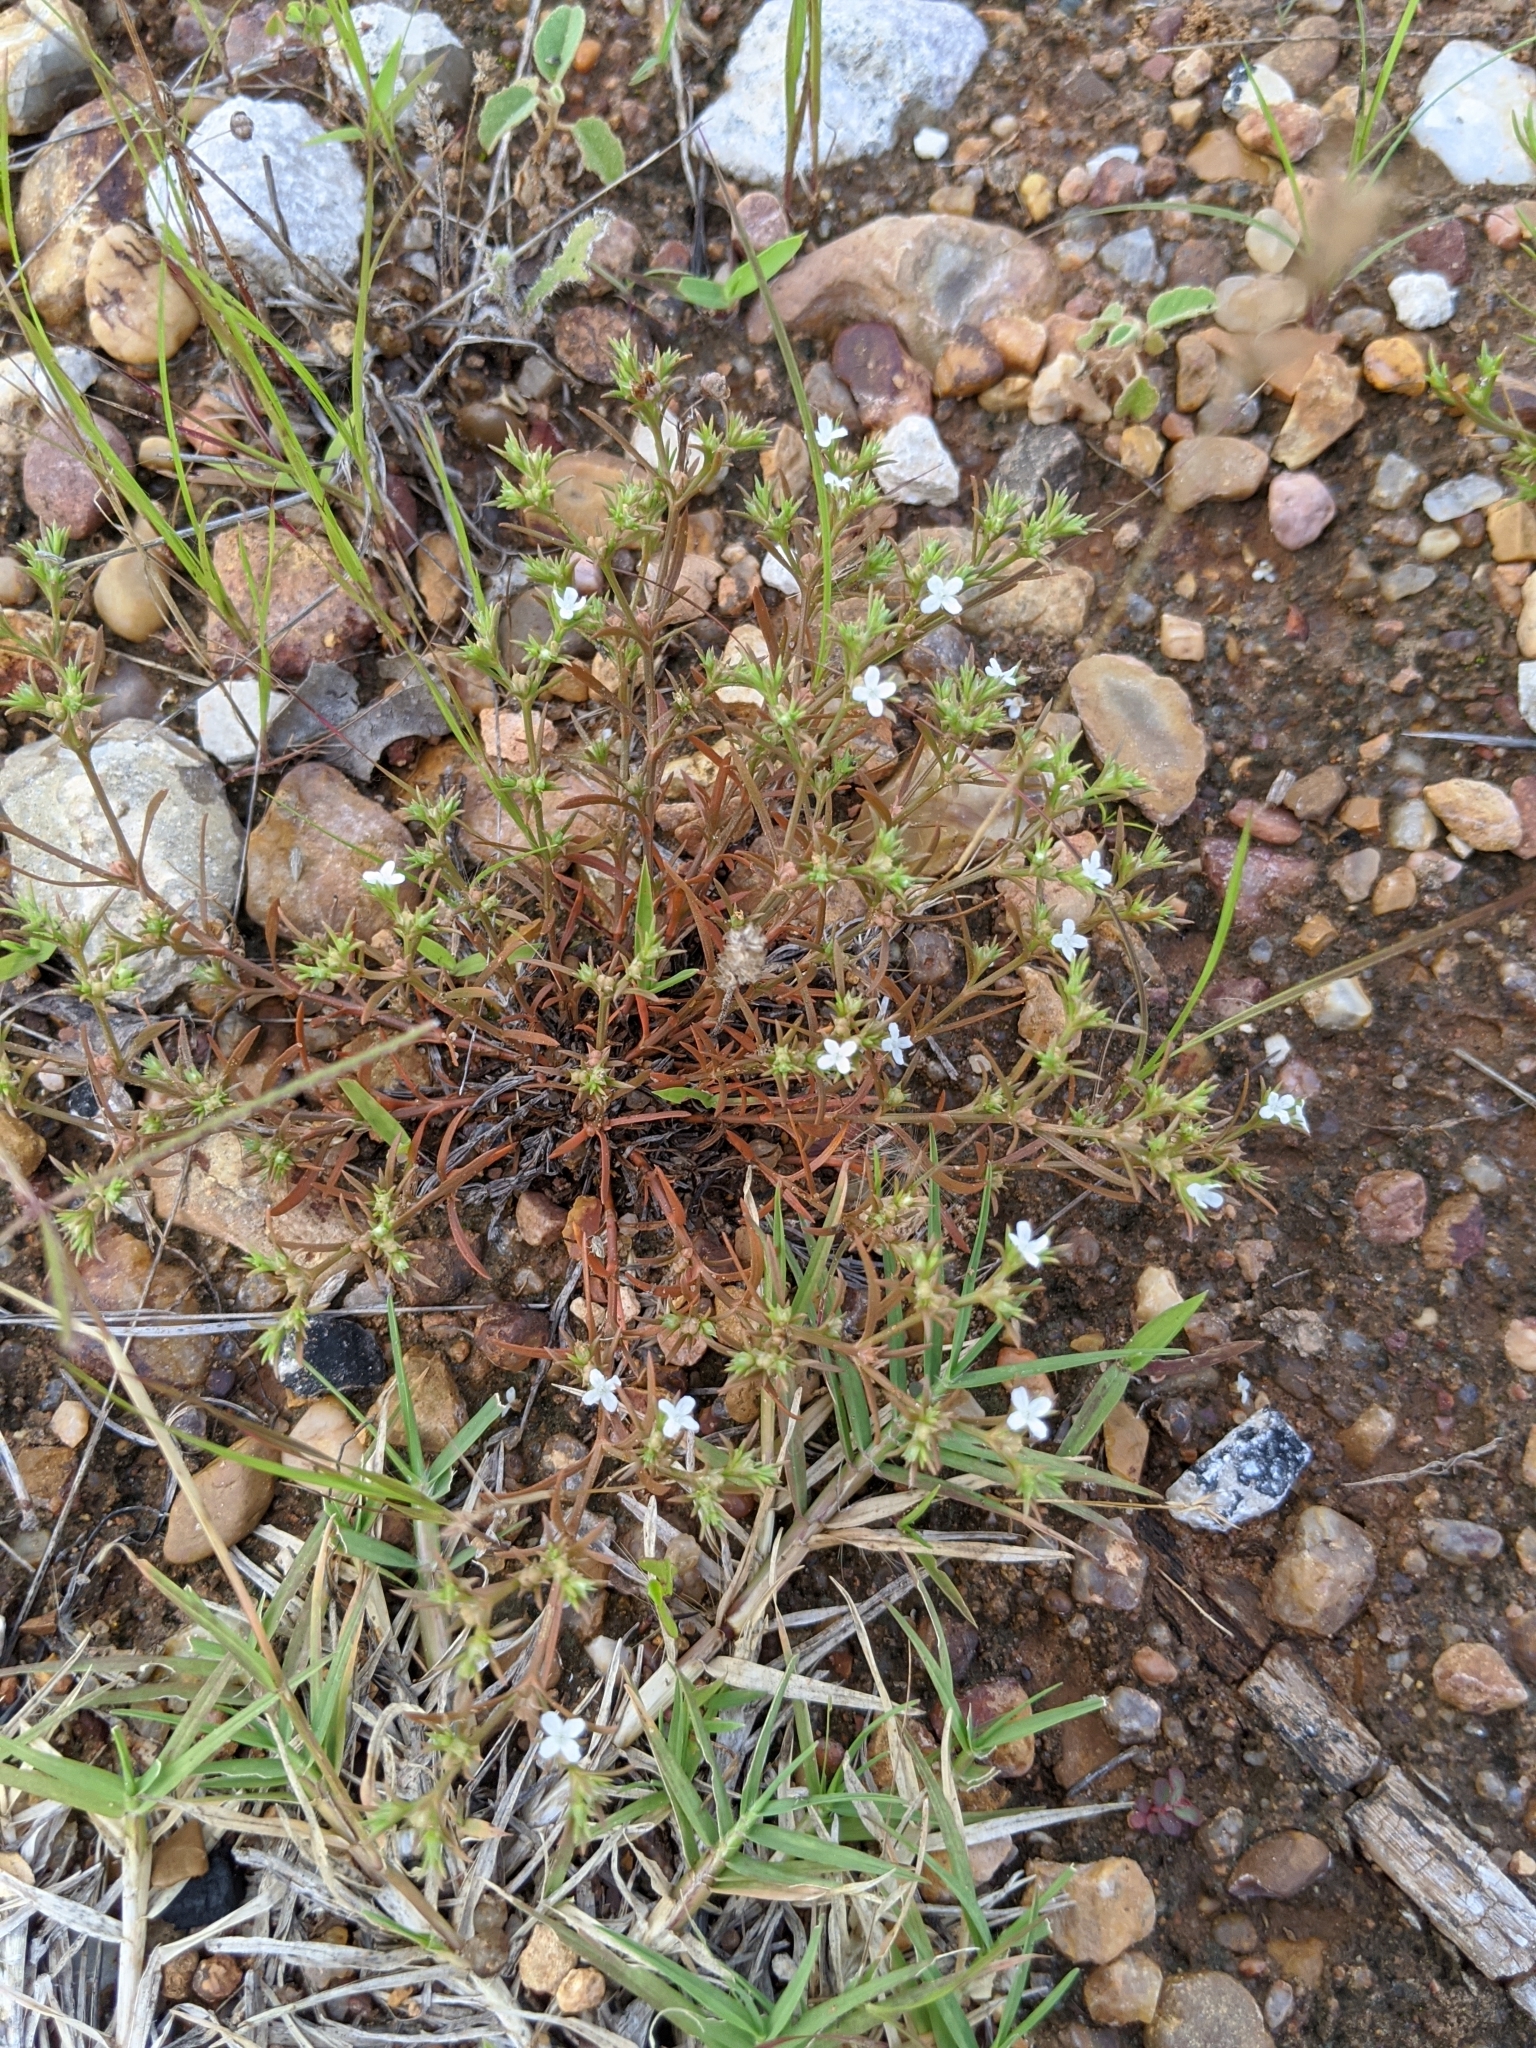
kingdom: Plantae
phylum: Tracheophyta
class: Magnoliopsida
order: Lamiales
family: Tetrachondraceae
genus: Polypremum
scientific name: Polypremum procumbens
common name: Juniper-leaf
